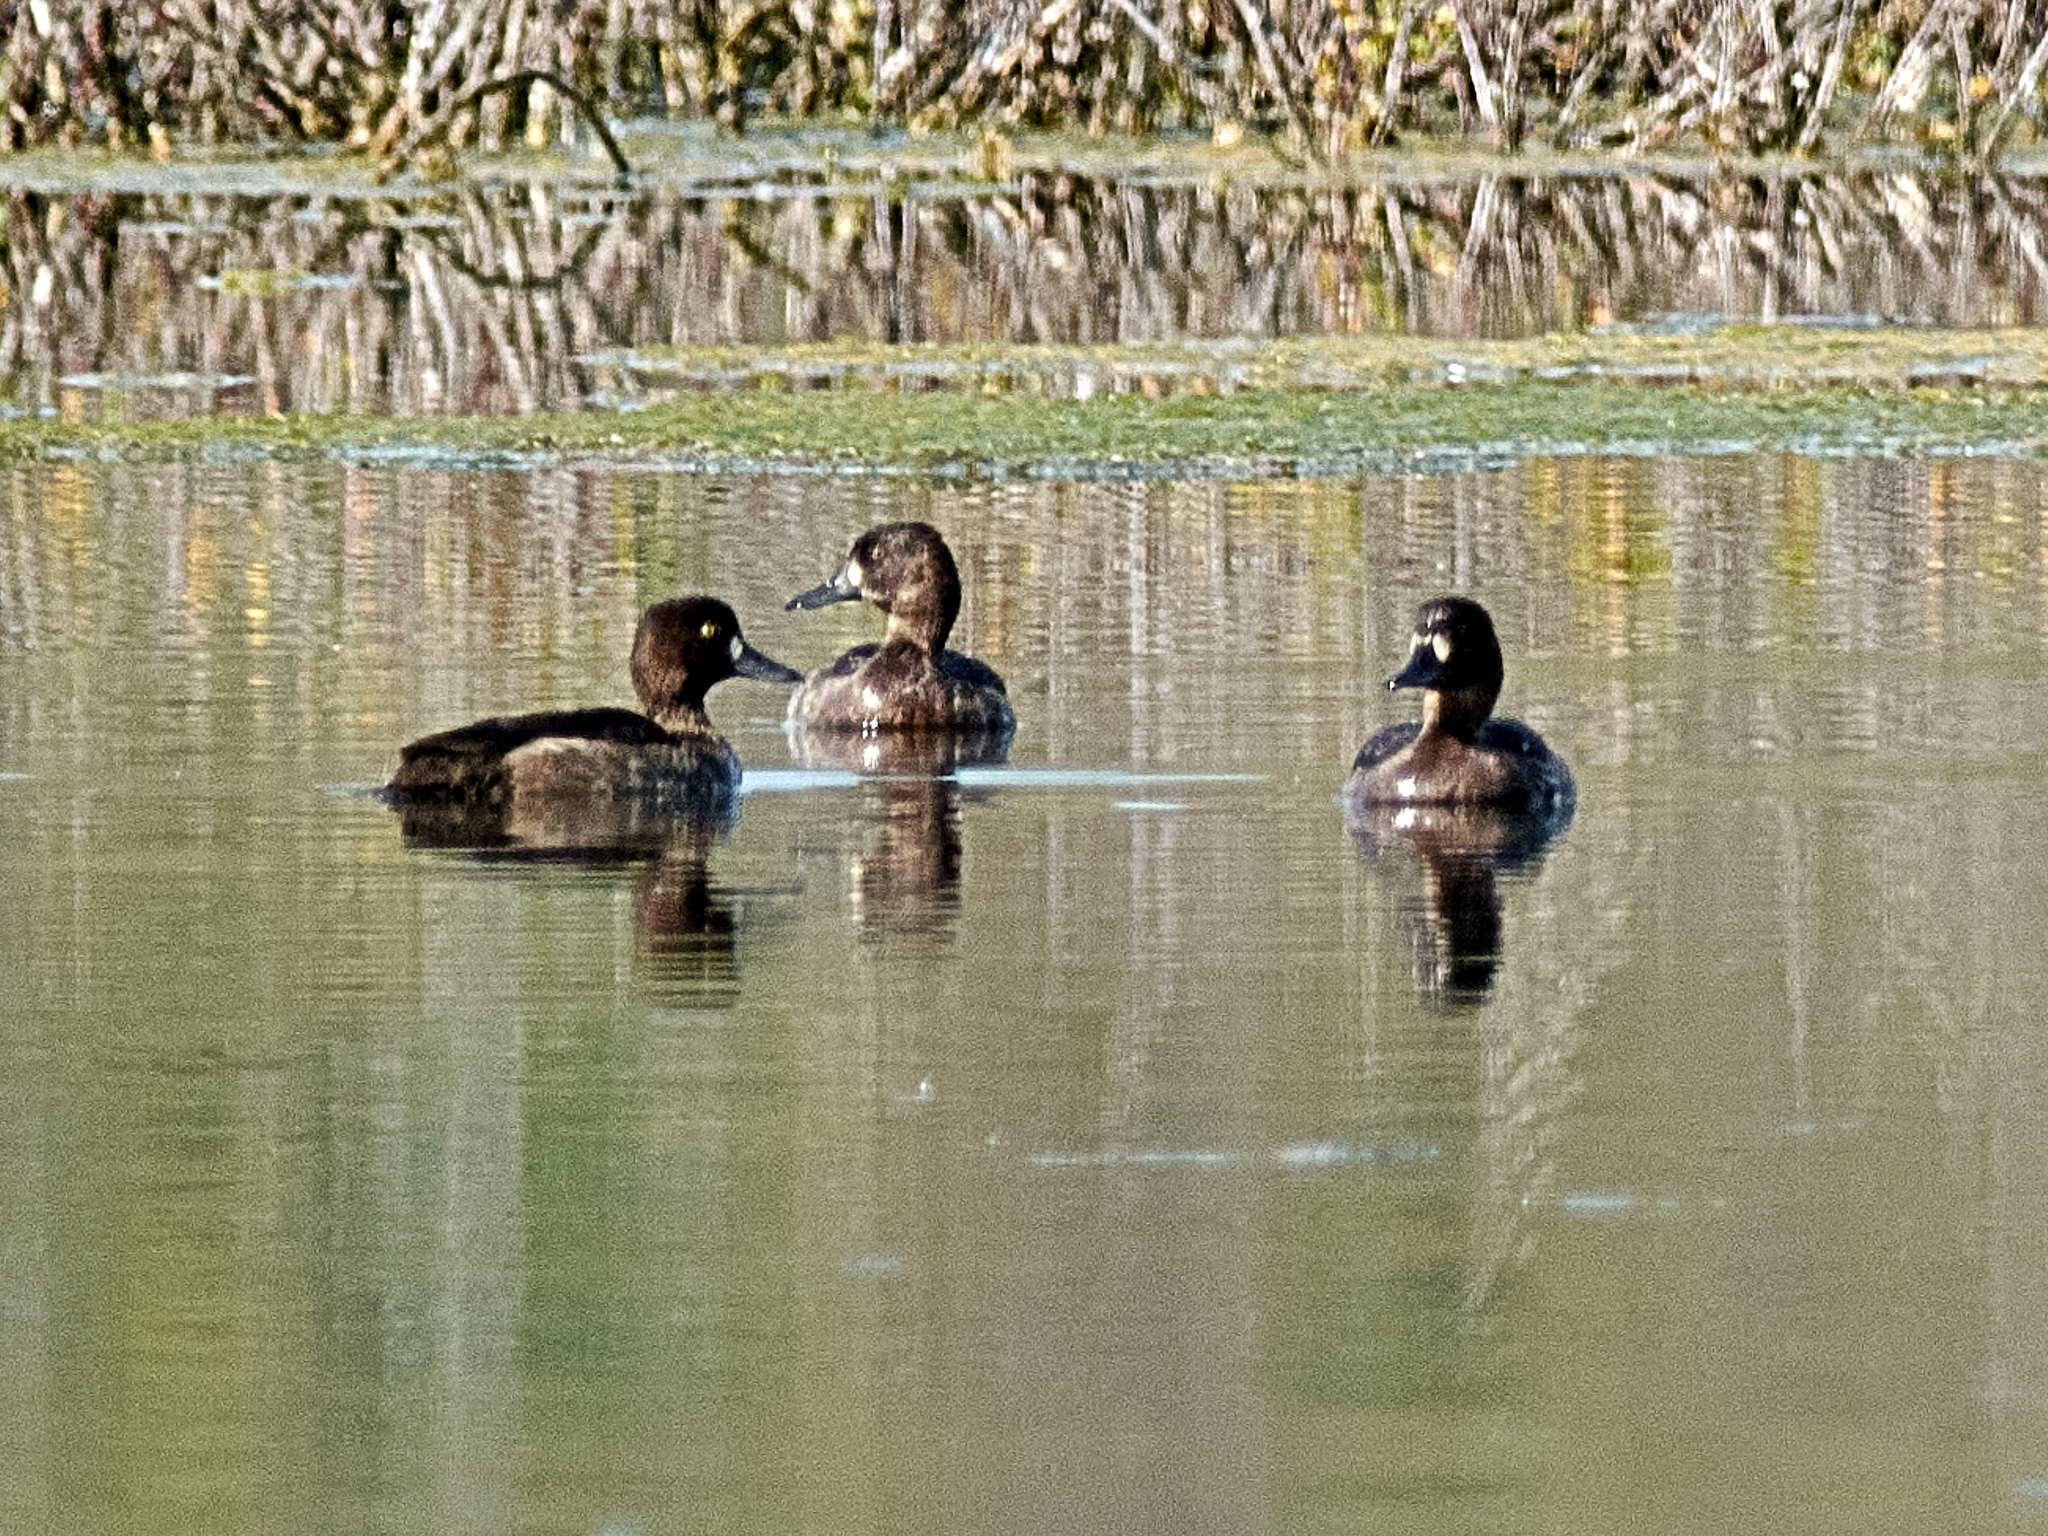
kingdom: Animalia
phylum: Chordata
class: Aves
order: Anseriformes
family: Anatidae
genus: Aythya
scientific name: Aythya fuligula
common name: Tufted duck
